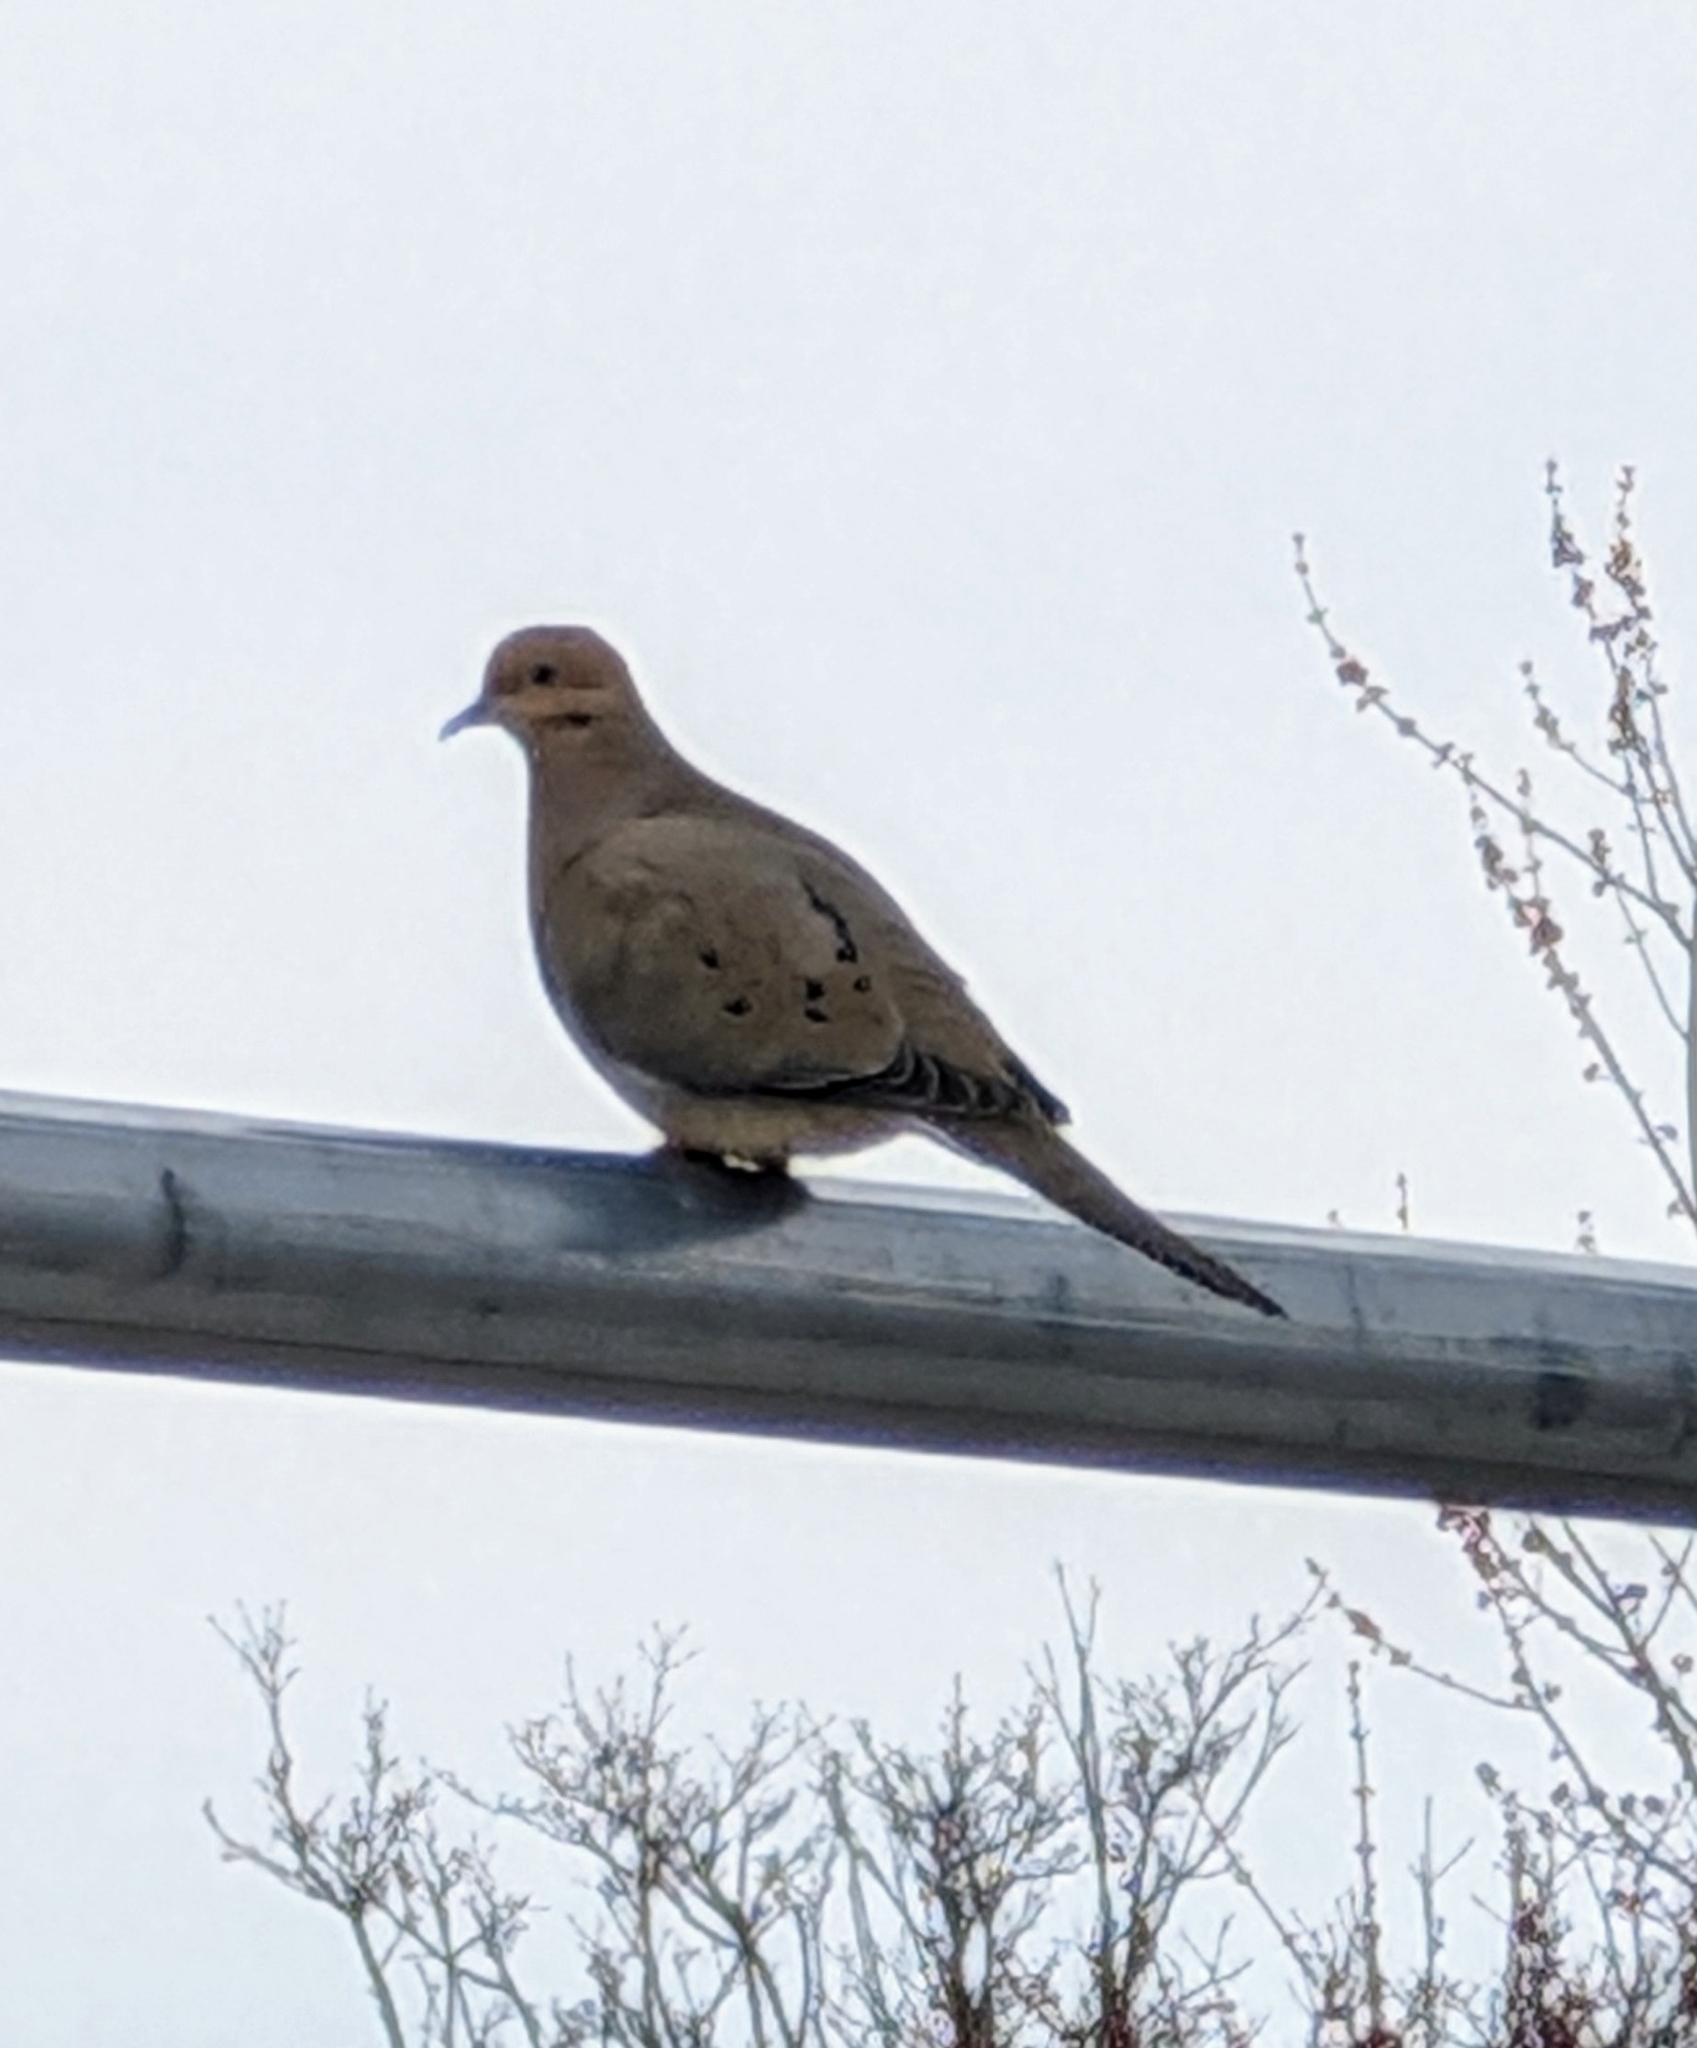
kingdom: Animalia
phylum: Chordata
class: Aves
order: Columbiformes
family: Columbidae
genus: Zenaida
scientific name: Zenaida macroura
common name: Mourning dove
